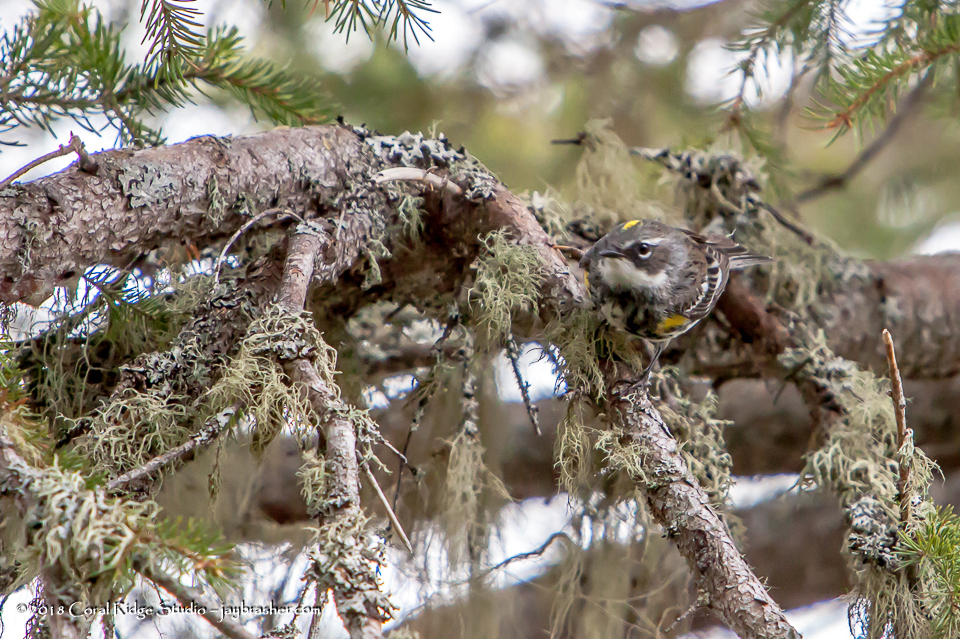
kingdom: Animalia
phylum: Chordata
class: Aves
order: Passeriformes
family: Parulidae
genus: Setophaga
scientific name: Setophaga coronata
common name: Myrtle warbler
